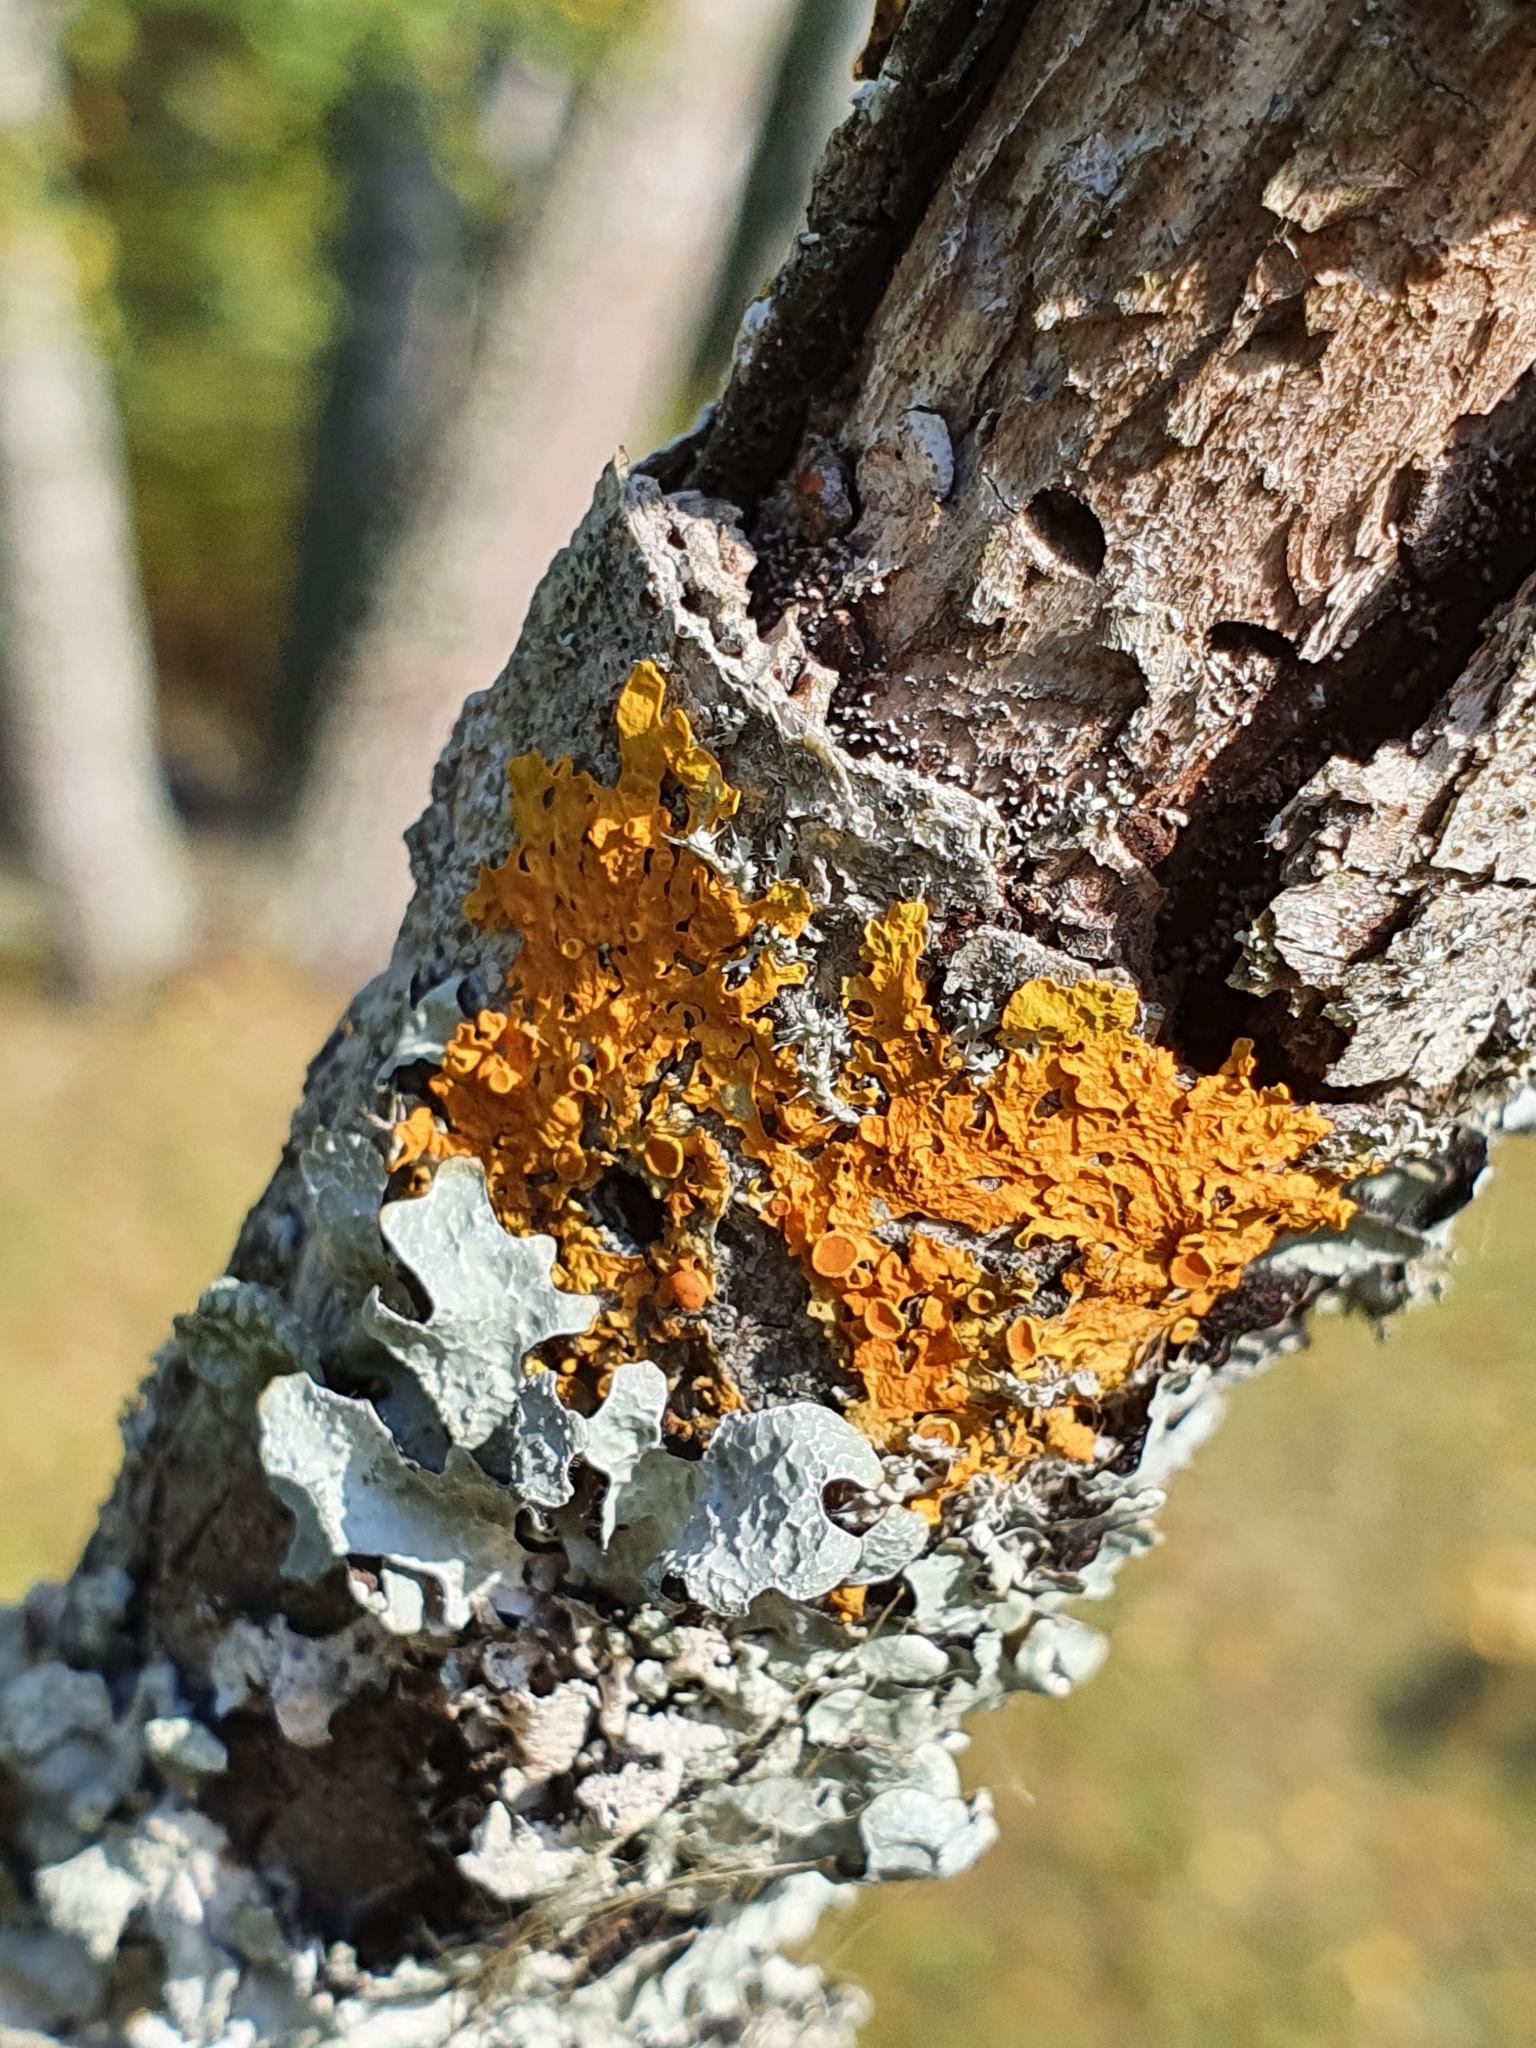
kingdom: Fungi
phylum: Ascomycota
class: Lecanoromycetes
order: Teloschistales
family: Teloschistaceae
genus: Xanthoria
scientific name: Xanthoria parietina
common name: Common orange lichen
